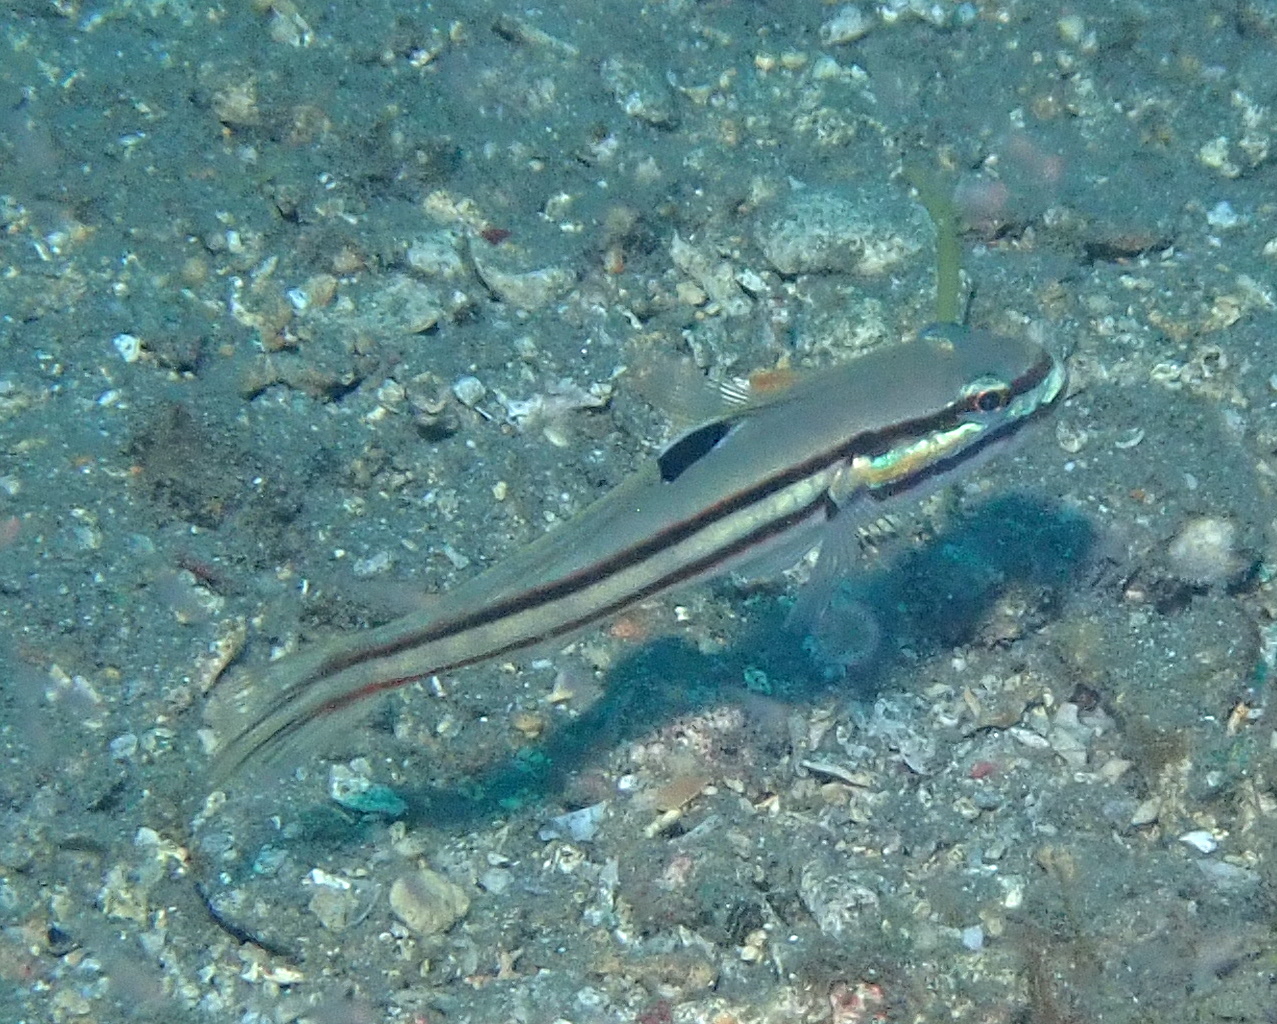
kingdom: Animalia
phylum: Chordata
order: Perciformes
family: Gobiidae
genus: Valenciennea
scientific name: Valenciennea helsdingenii
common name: Twostripe goby
